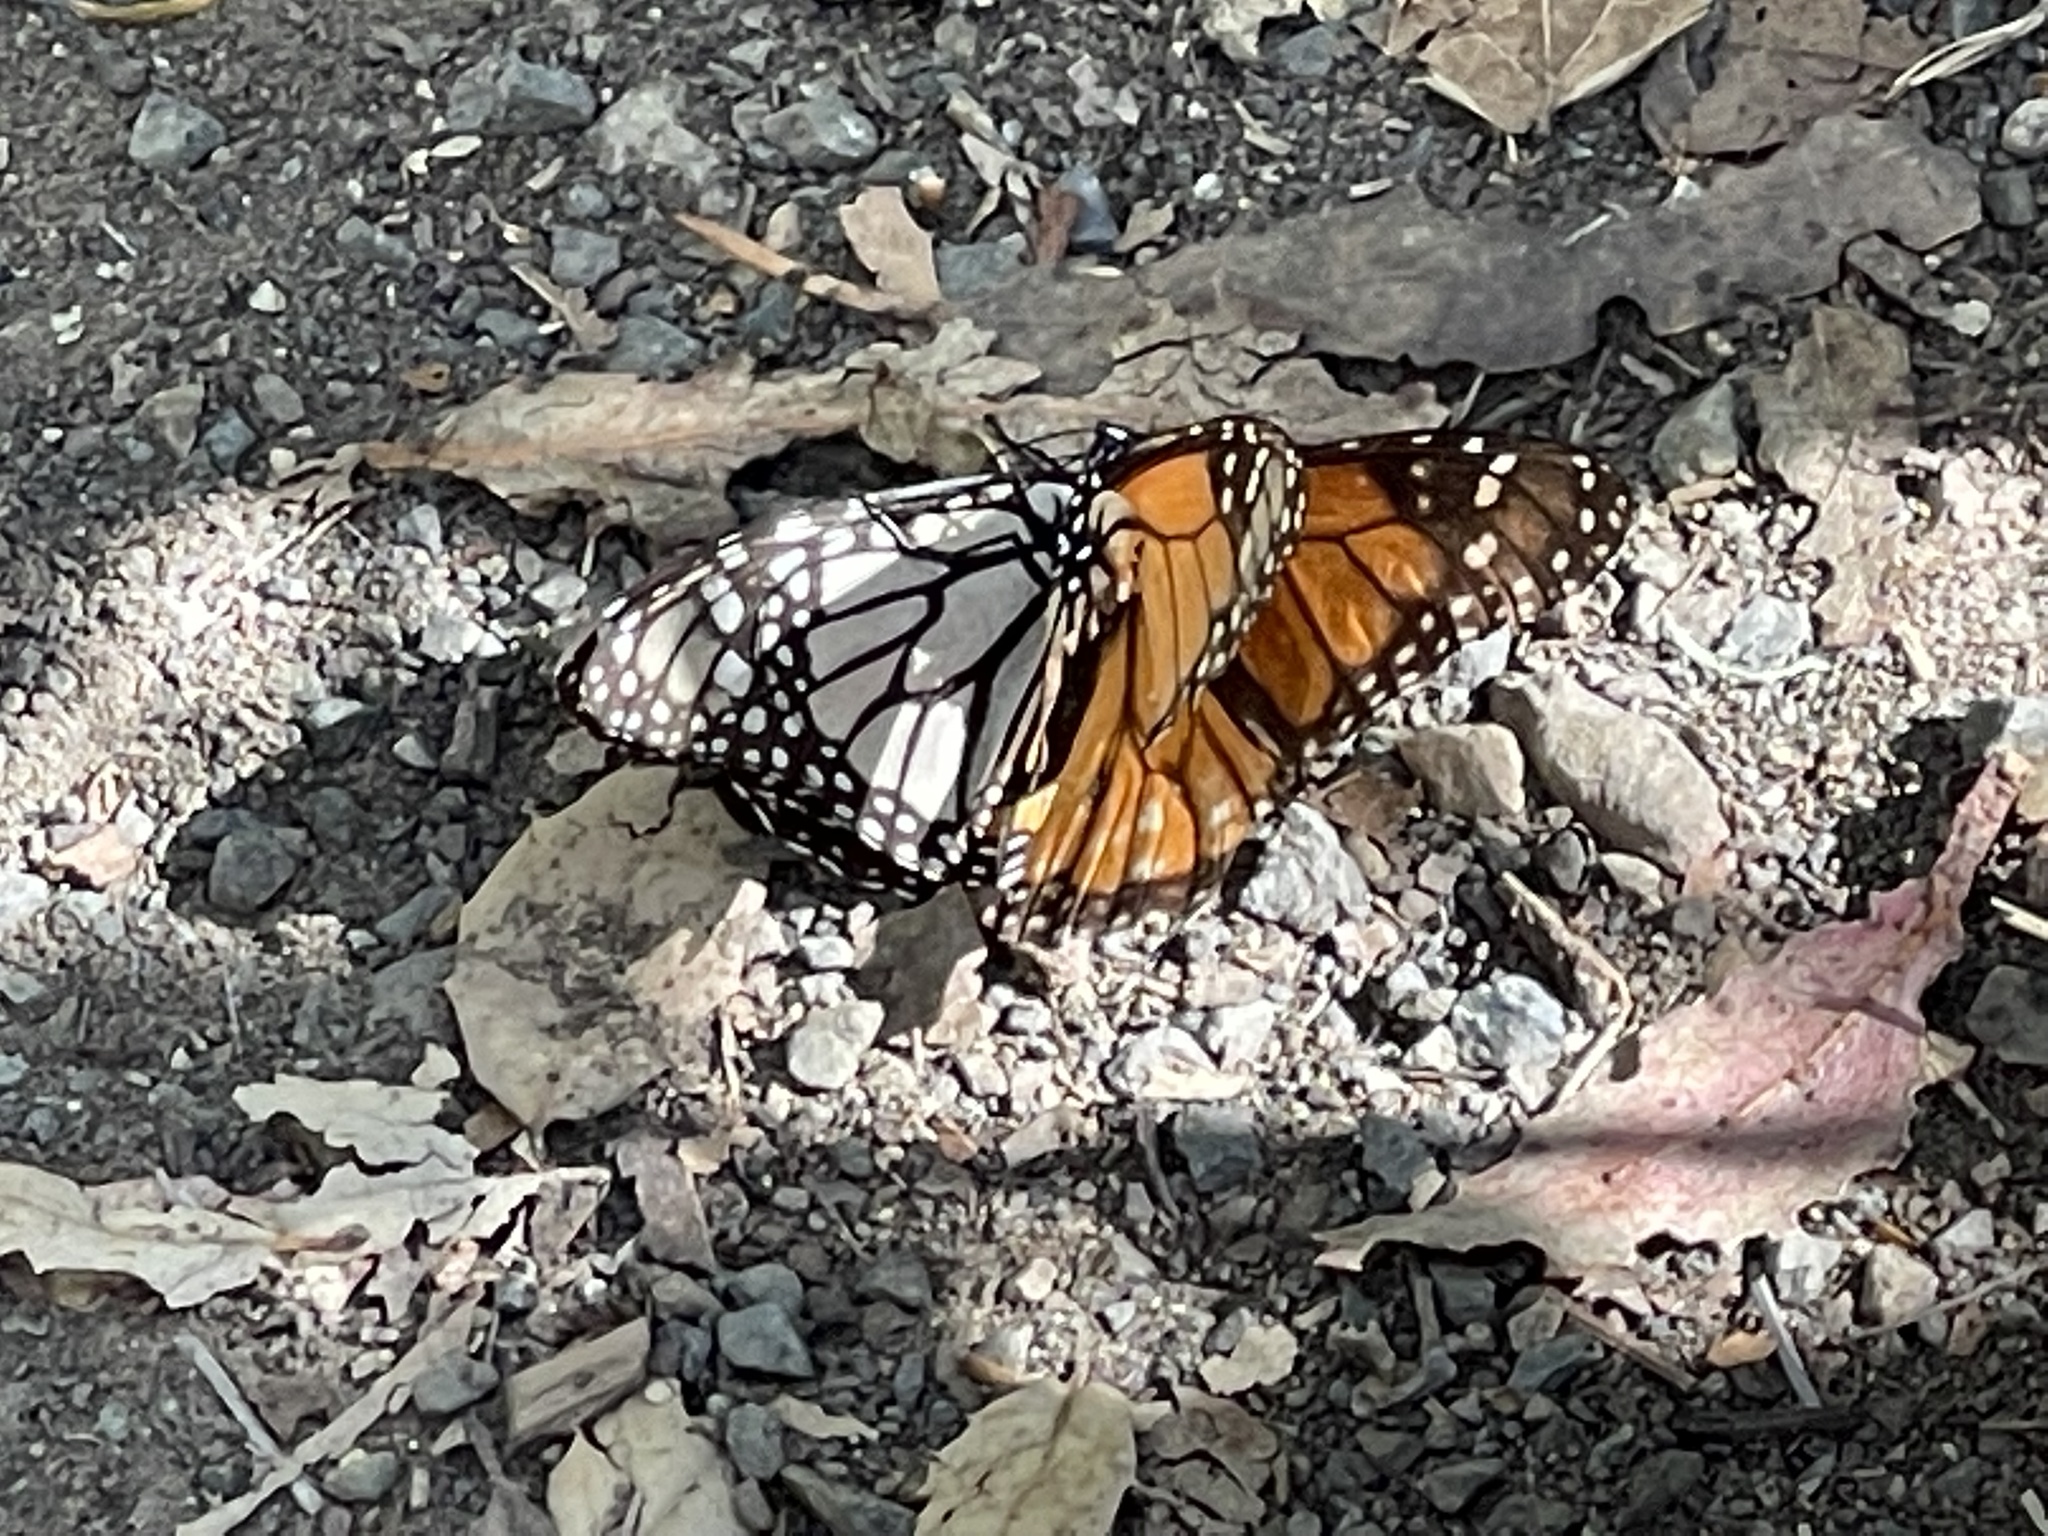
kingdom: Animalia
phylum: Arthropoda
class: Insecta
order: Lepidoptera
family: Nymphalidae
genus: Danaus
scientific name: Danaus plexippus
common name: Monarch
